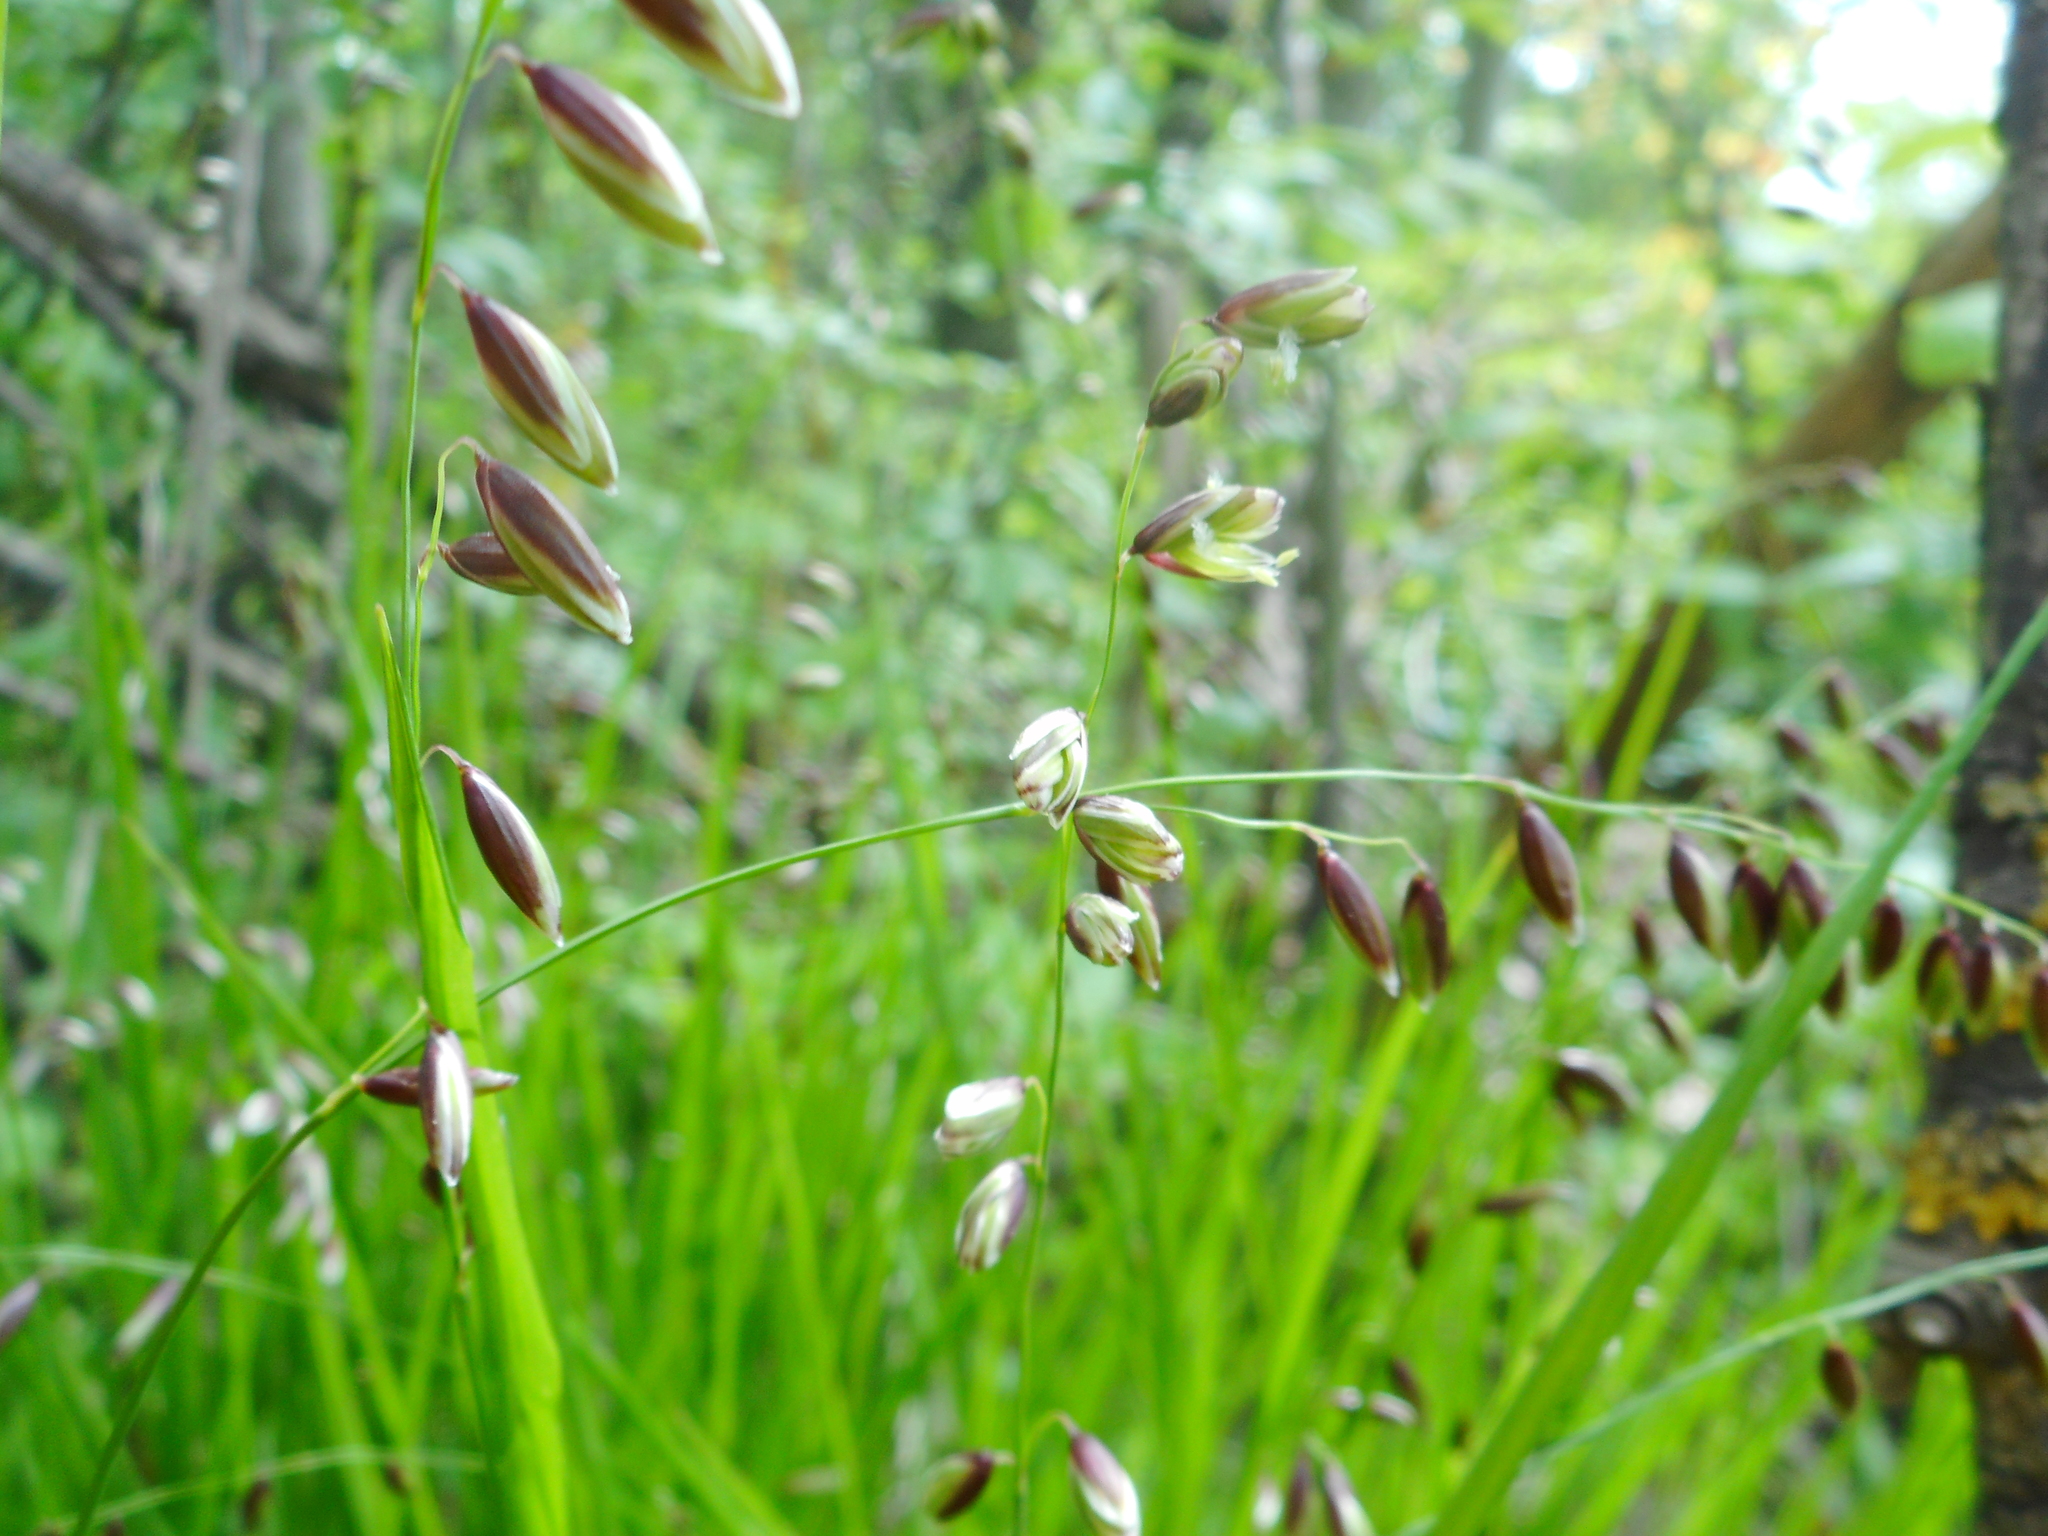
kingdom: Plantae
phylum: Tracheophyta
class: Liliopsida
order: Poales
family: Poaceae
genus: Melica
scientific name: Melica nutans
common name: Mountain melick
